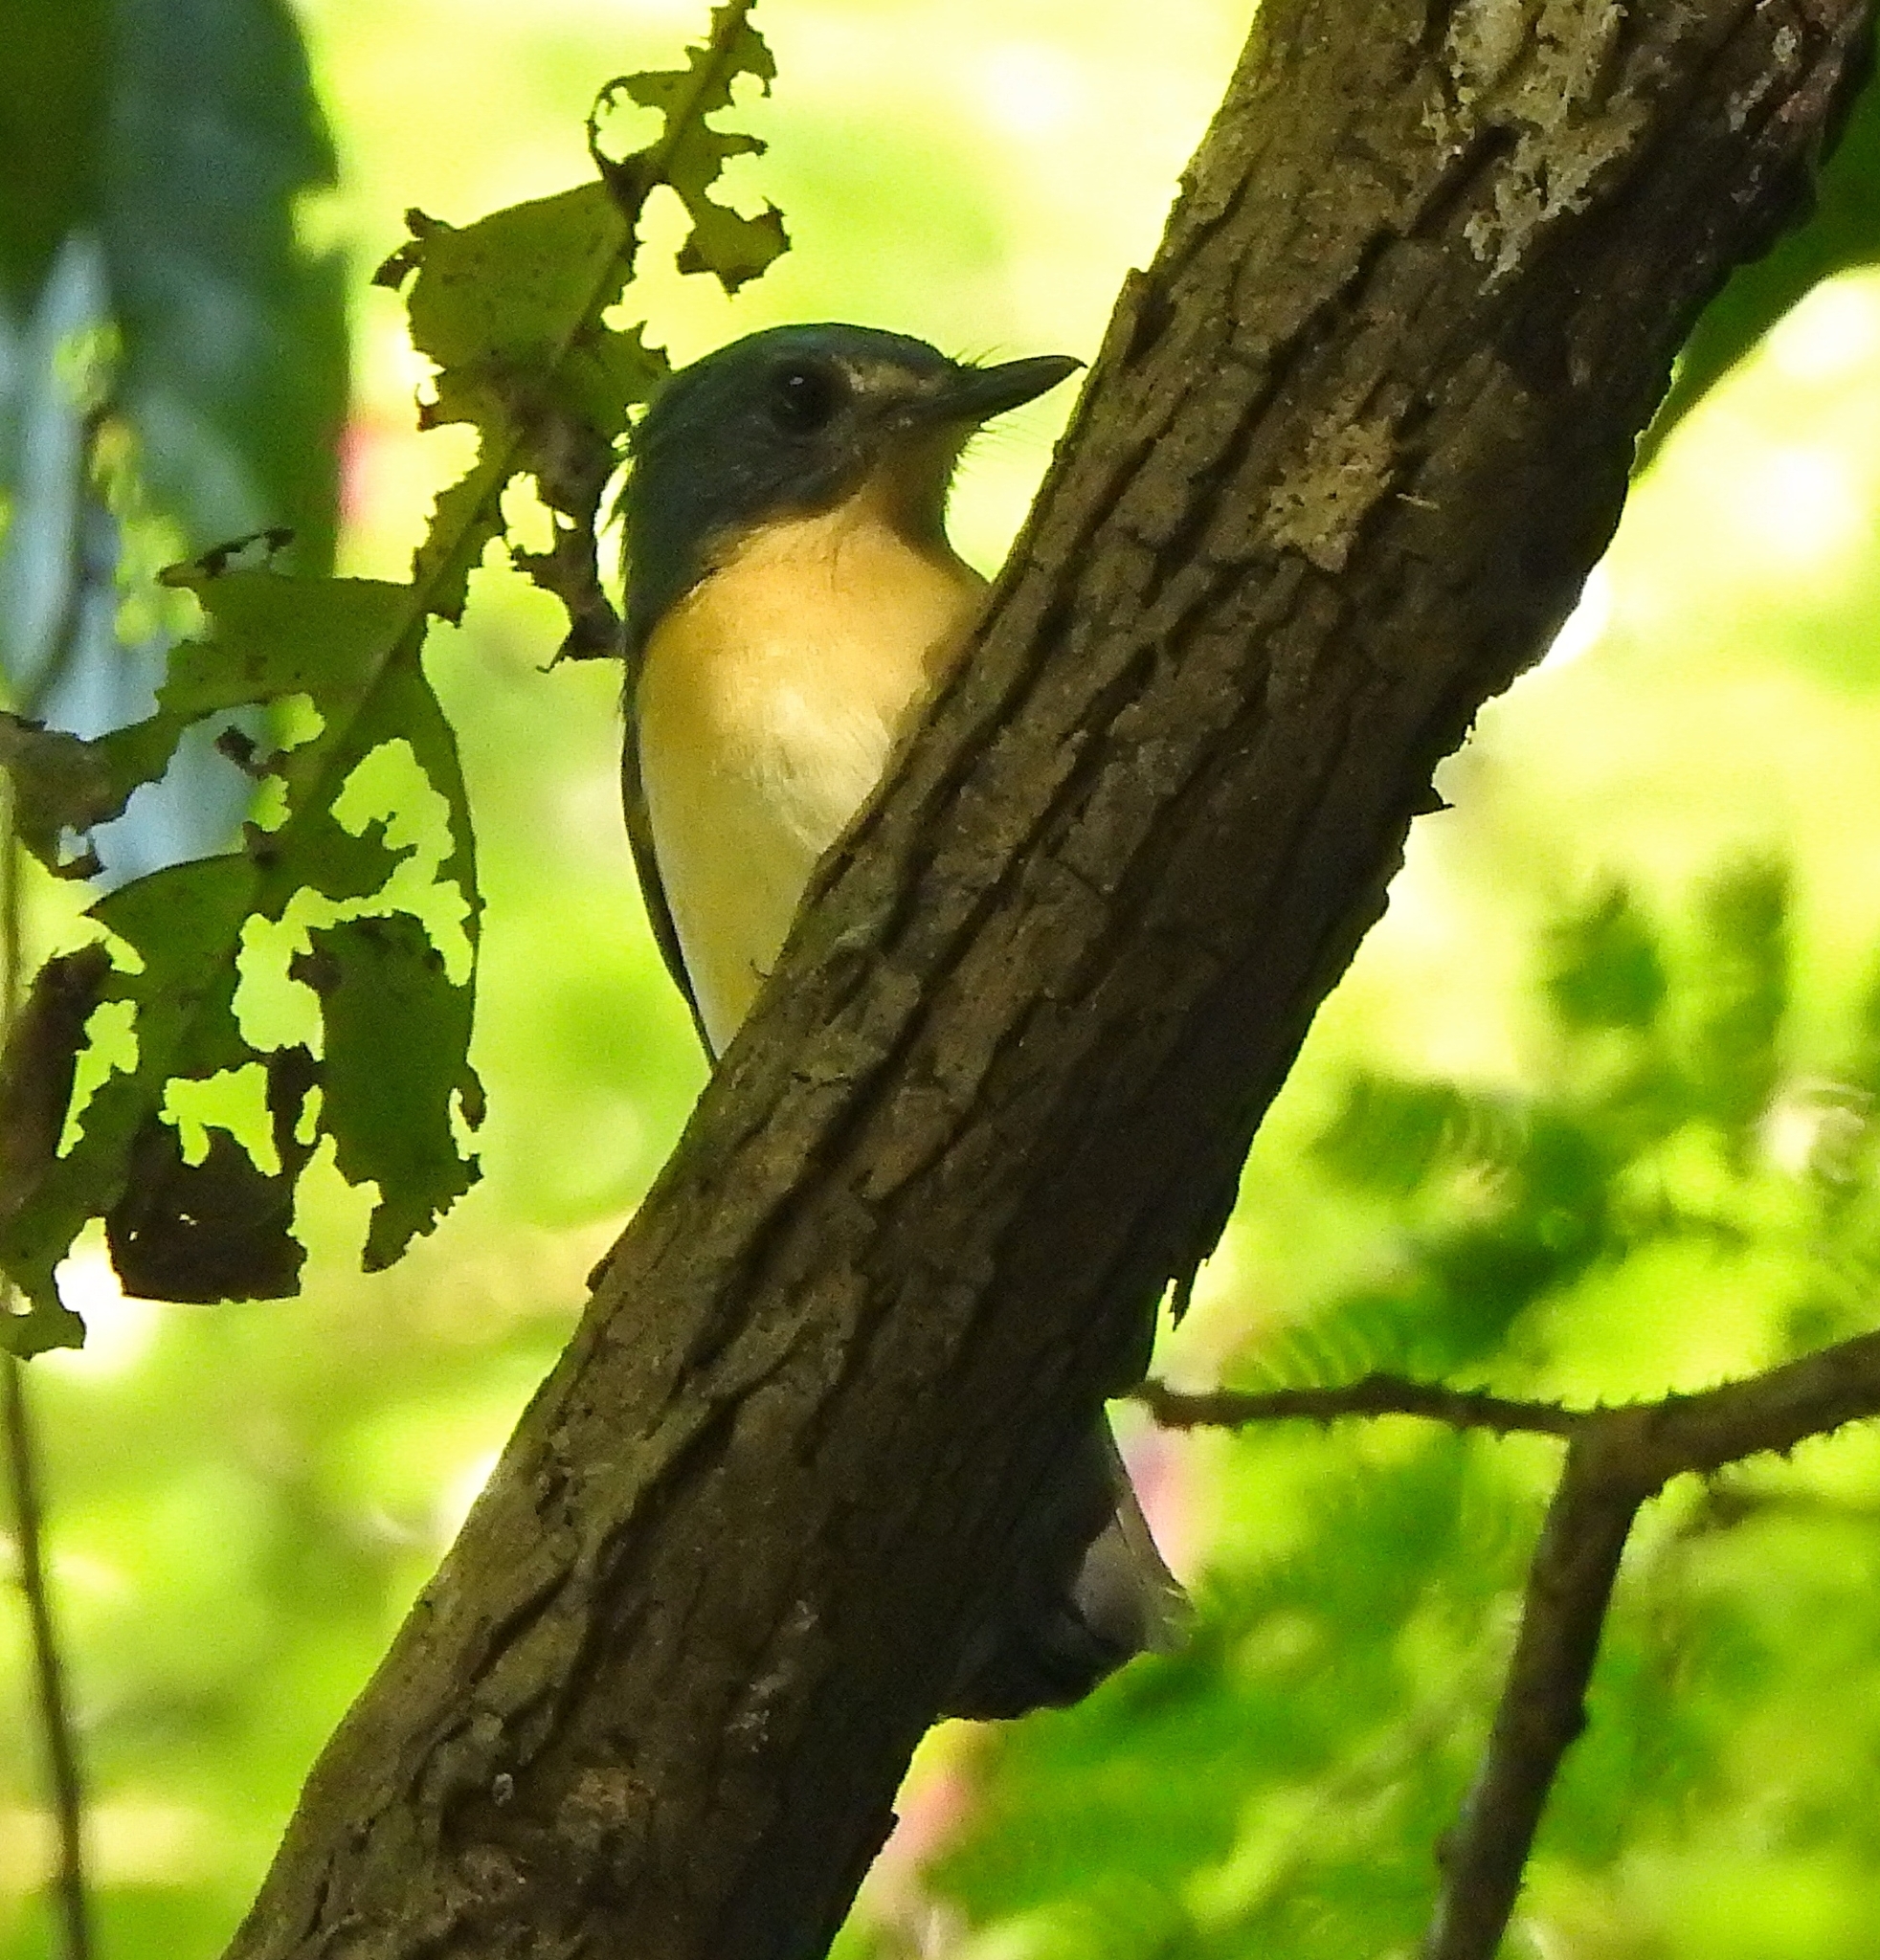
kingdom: Animalia
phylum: Chordata
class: Aves
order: Passeriformes
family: Muscicapidae
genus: Cyornis
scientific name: Cyornis tickelliae
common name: Tickell's blue flycatcher
